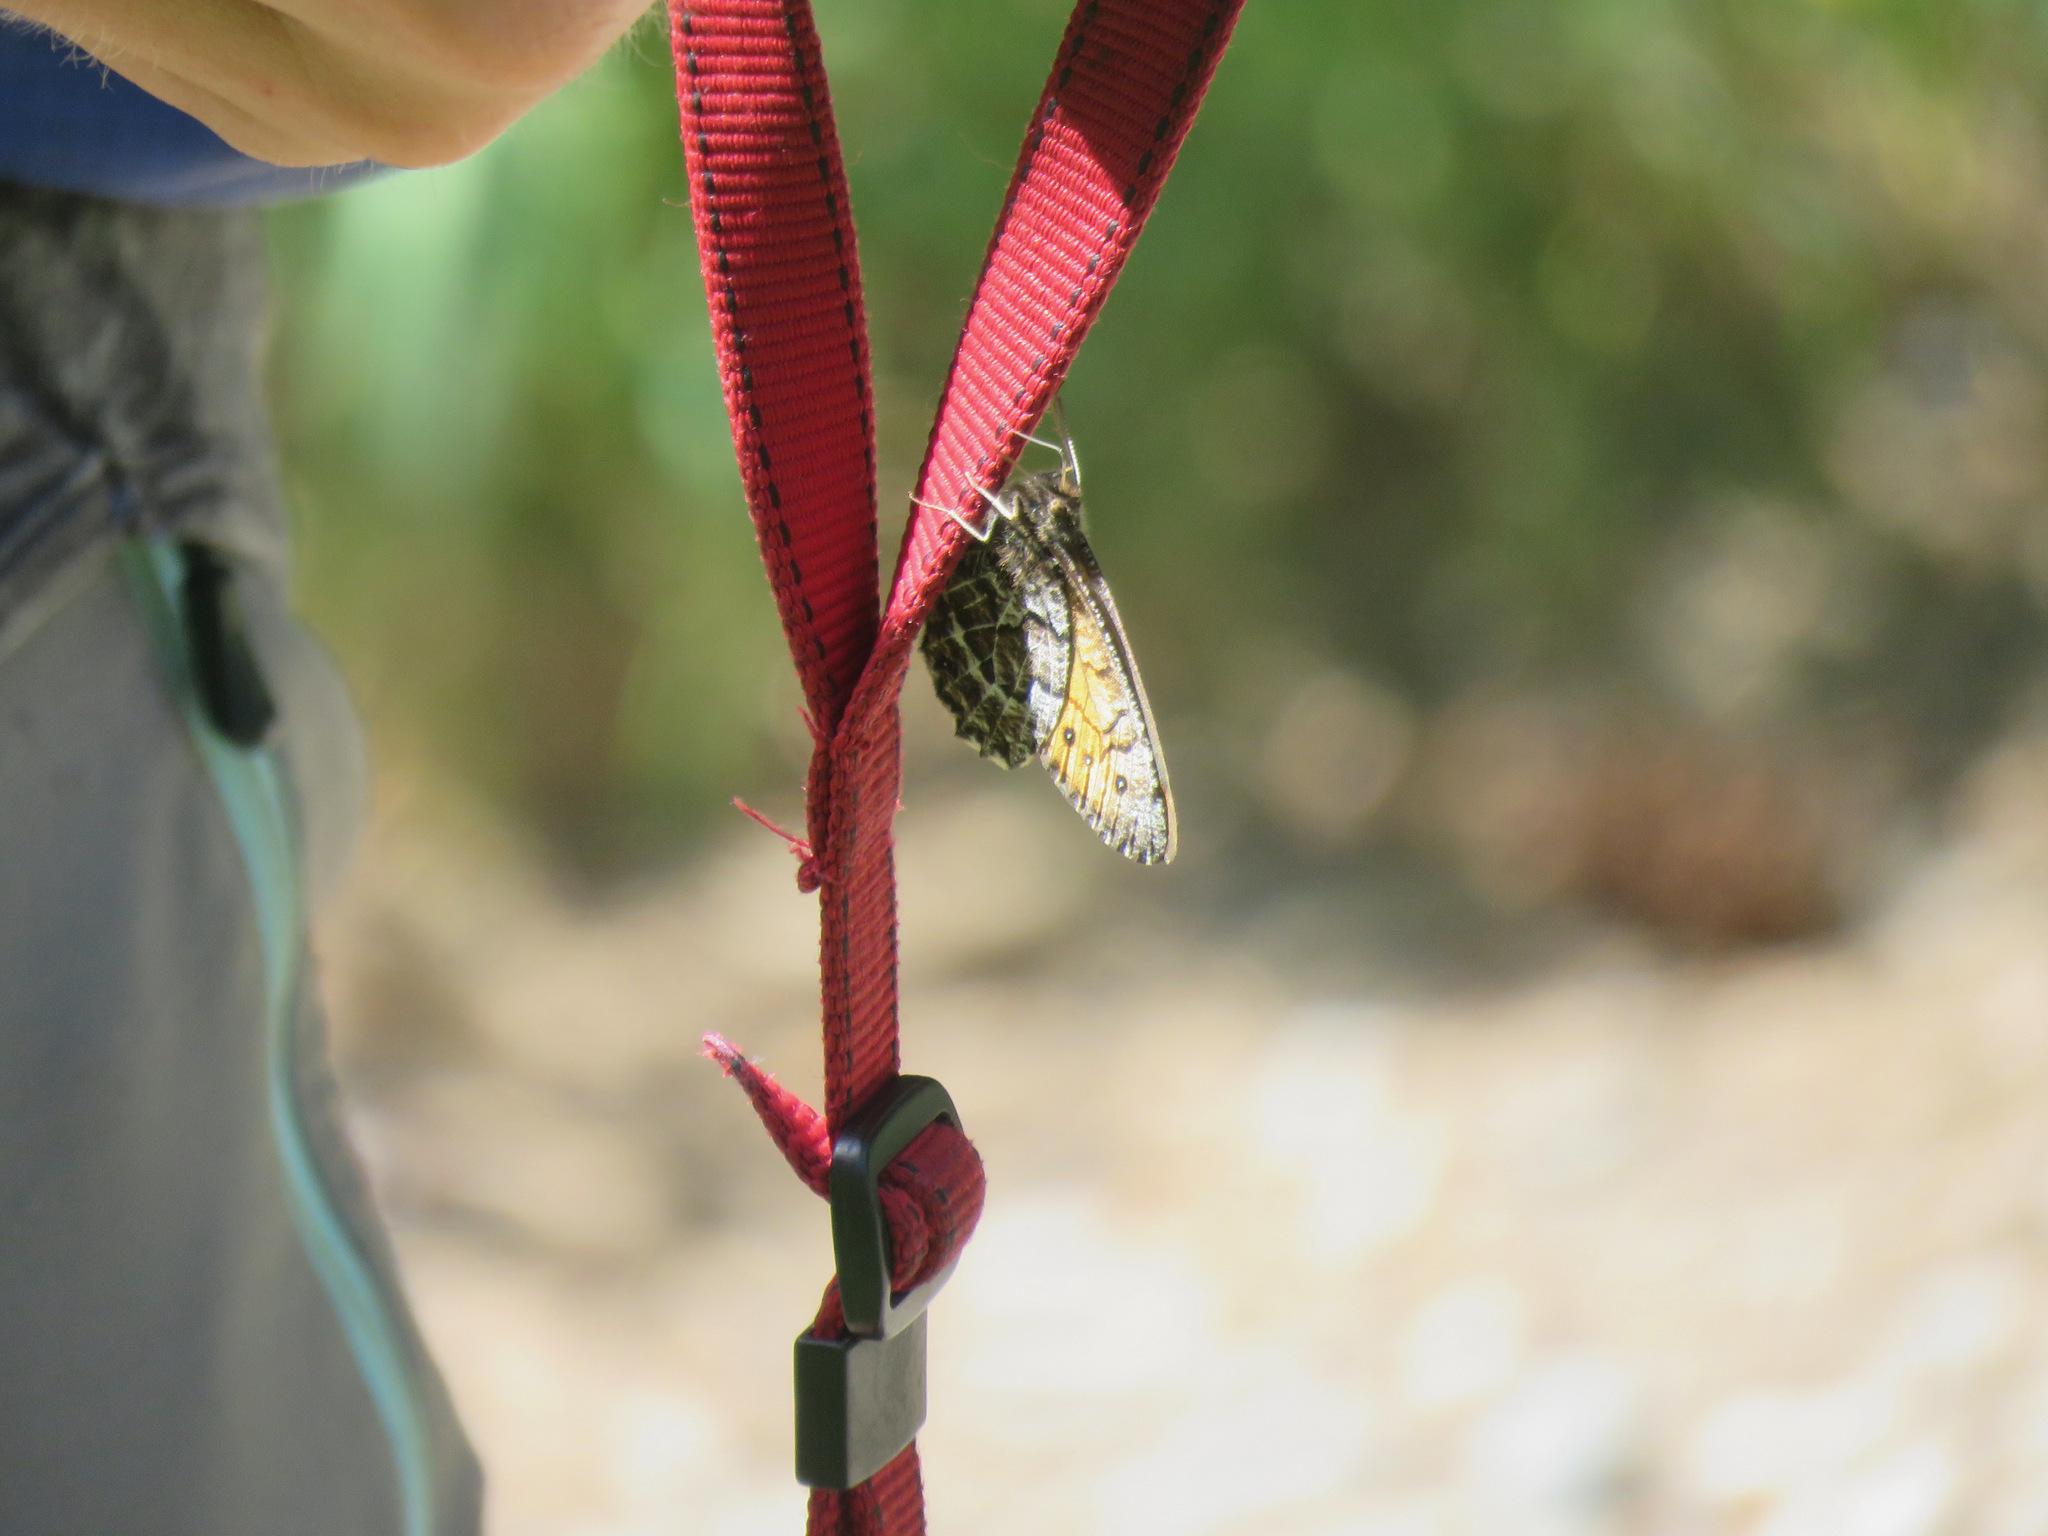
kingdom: Animalia
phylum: Arthropoda
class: Insecta
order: Lepidoptera
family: Nymphalidae
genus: Oeneis
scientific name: Oeneis chryxus
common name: Chryxus arctic
